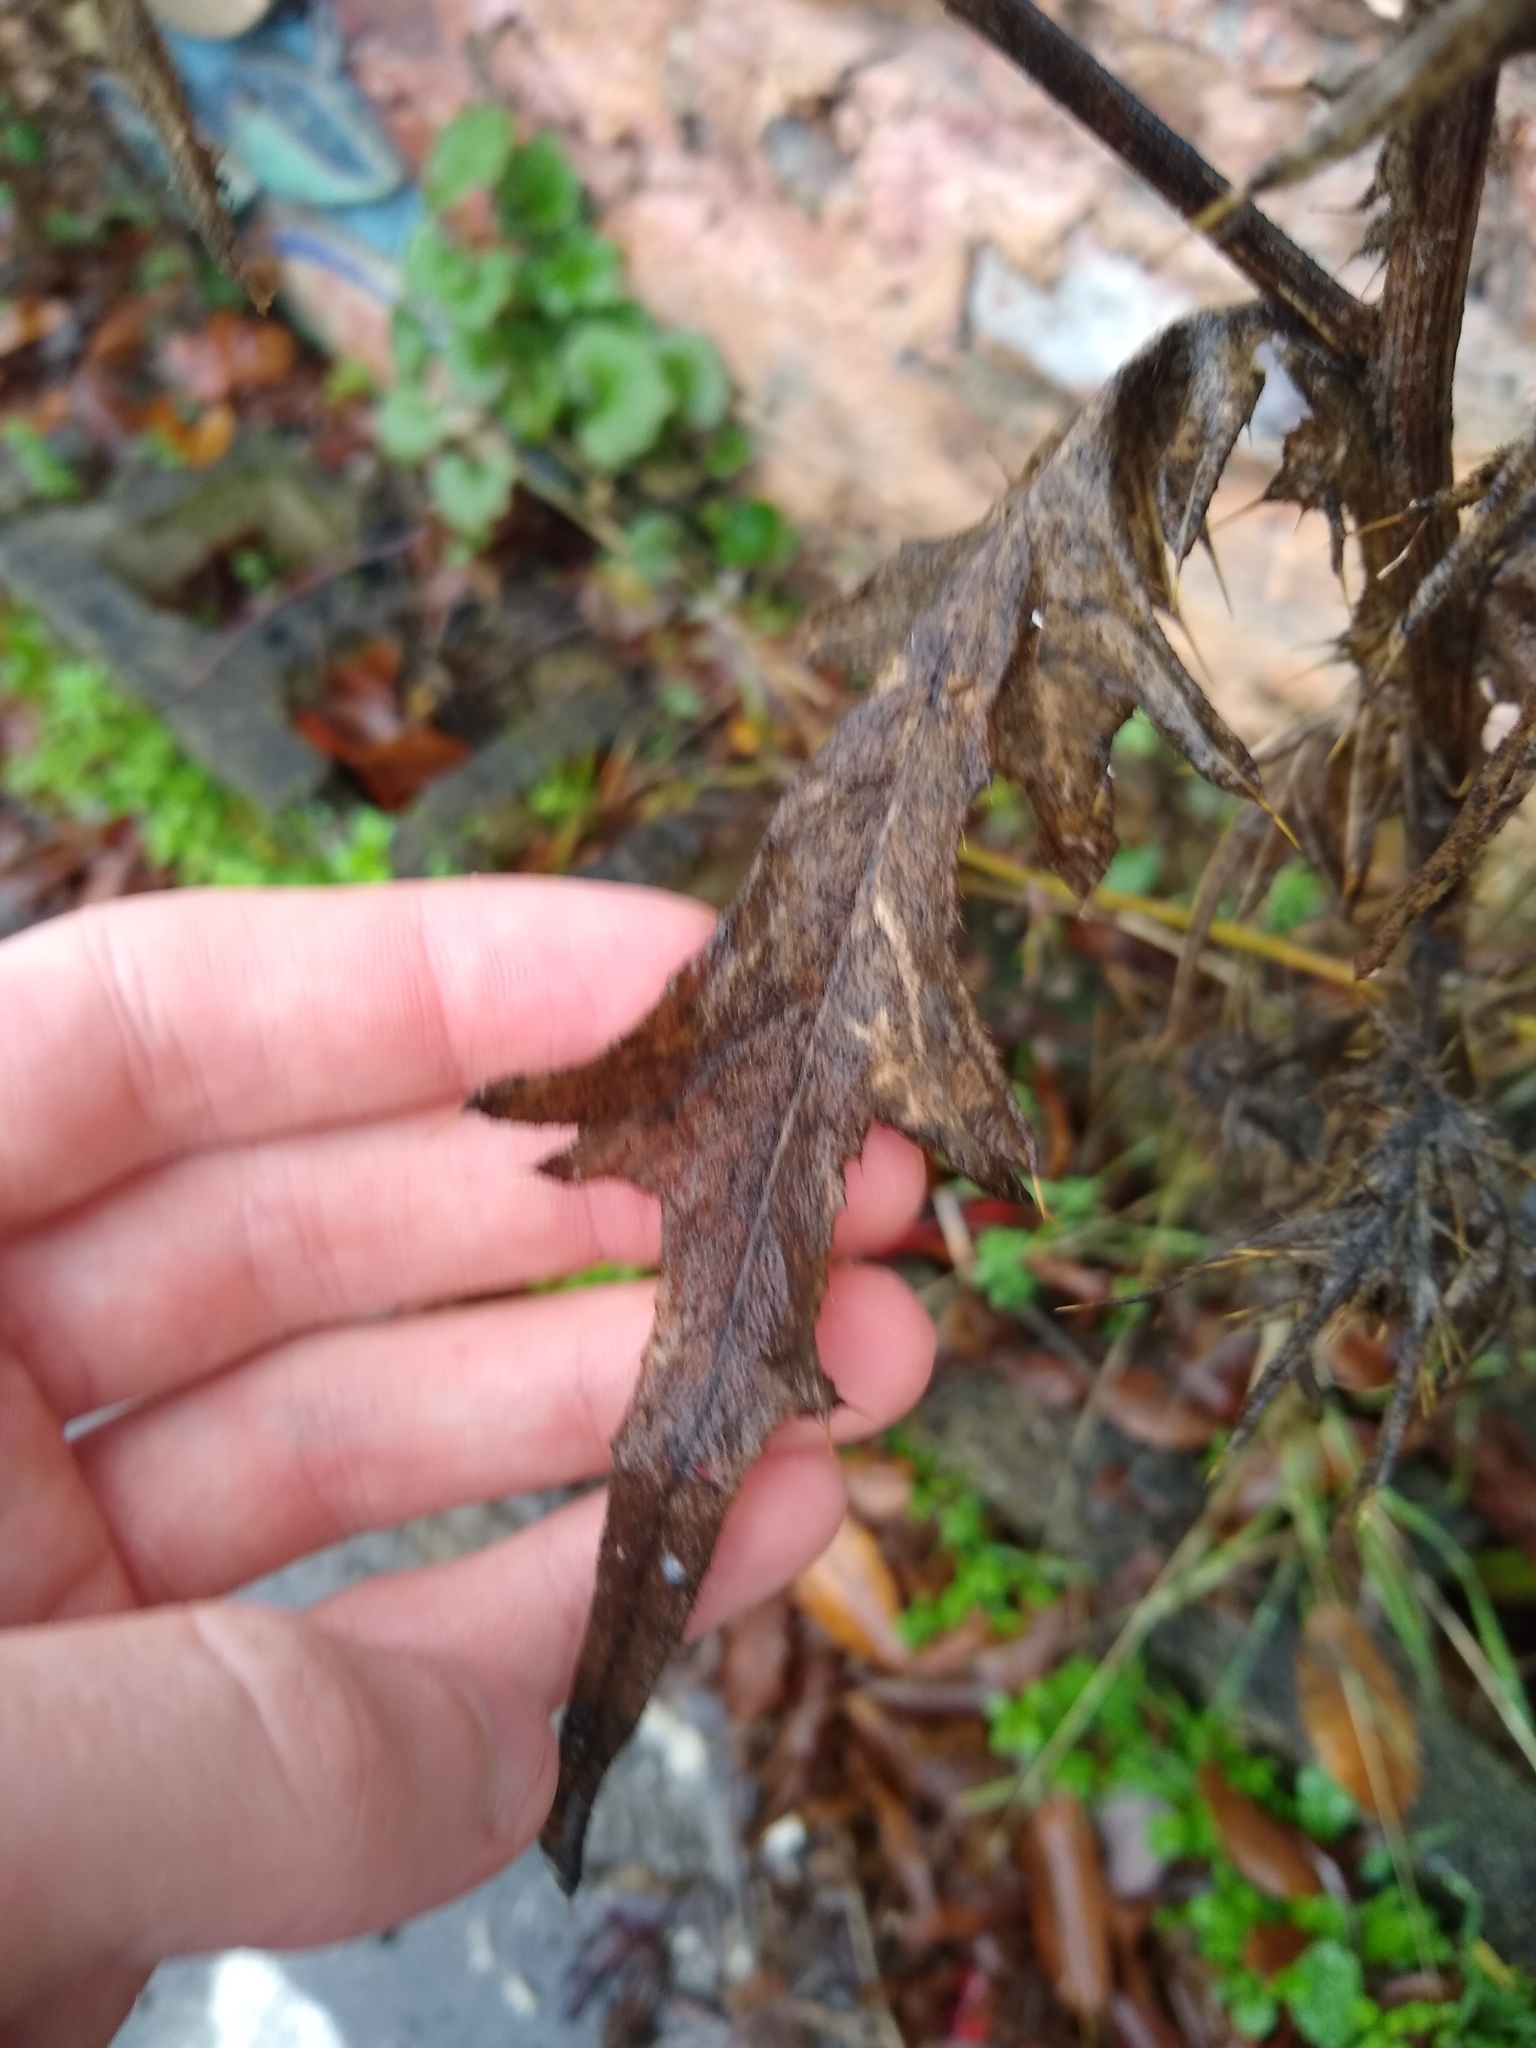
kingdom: Plantae
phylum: Tracheophyta
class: Magnoliopsida
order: Asterales
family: Asteraceae
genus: Cirsium
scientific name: Cirsium vulgare
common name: Bull thistle
